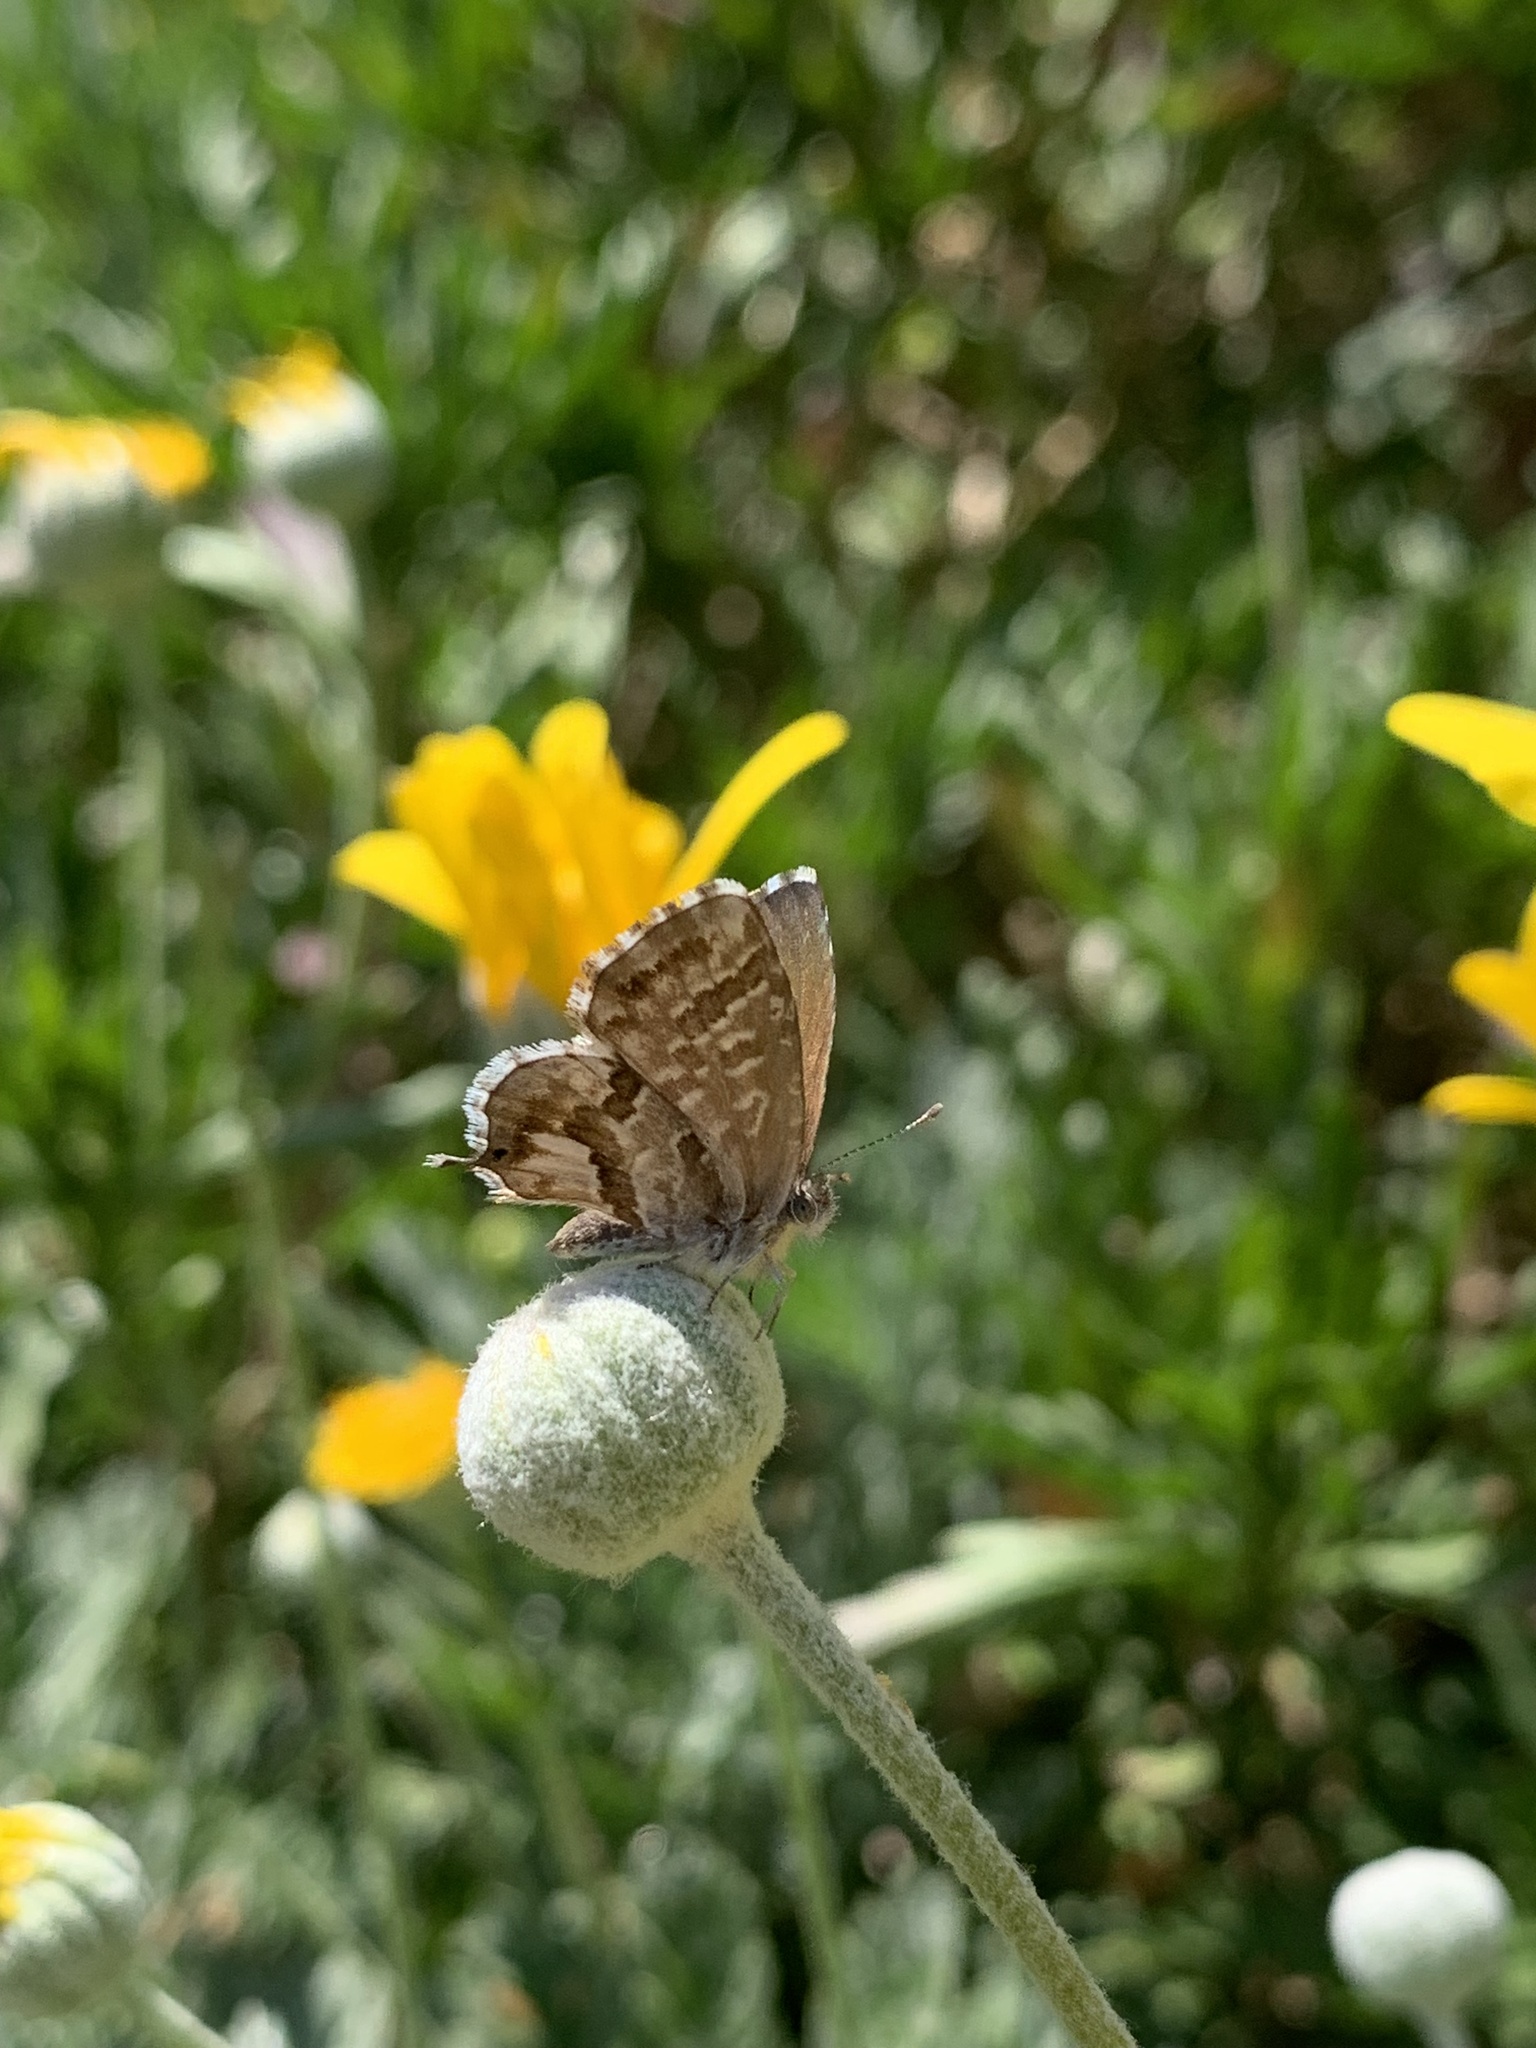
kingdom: Animalia
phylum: Arthropoda
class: Insecta
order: Lepidoptera
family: Lycaenidae
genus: Cacyreus
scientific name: Cacyreus marshalli
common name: Geranium bronze
